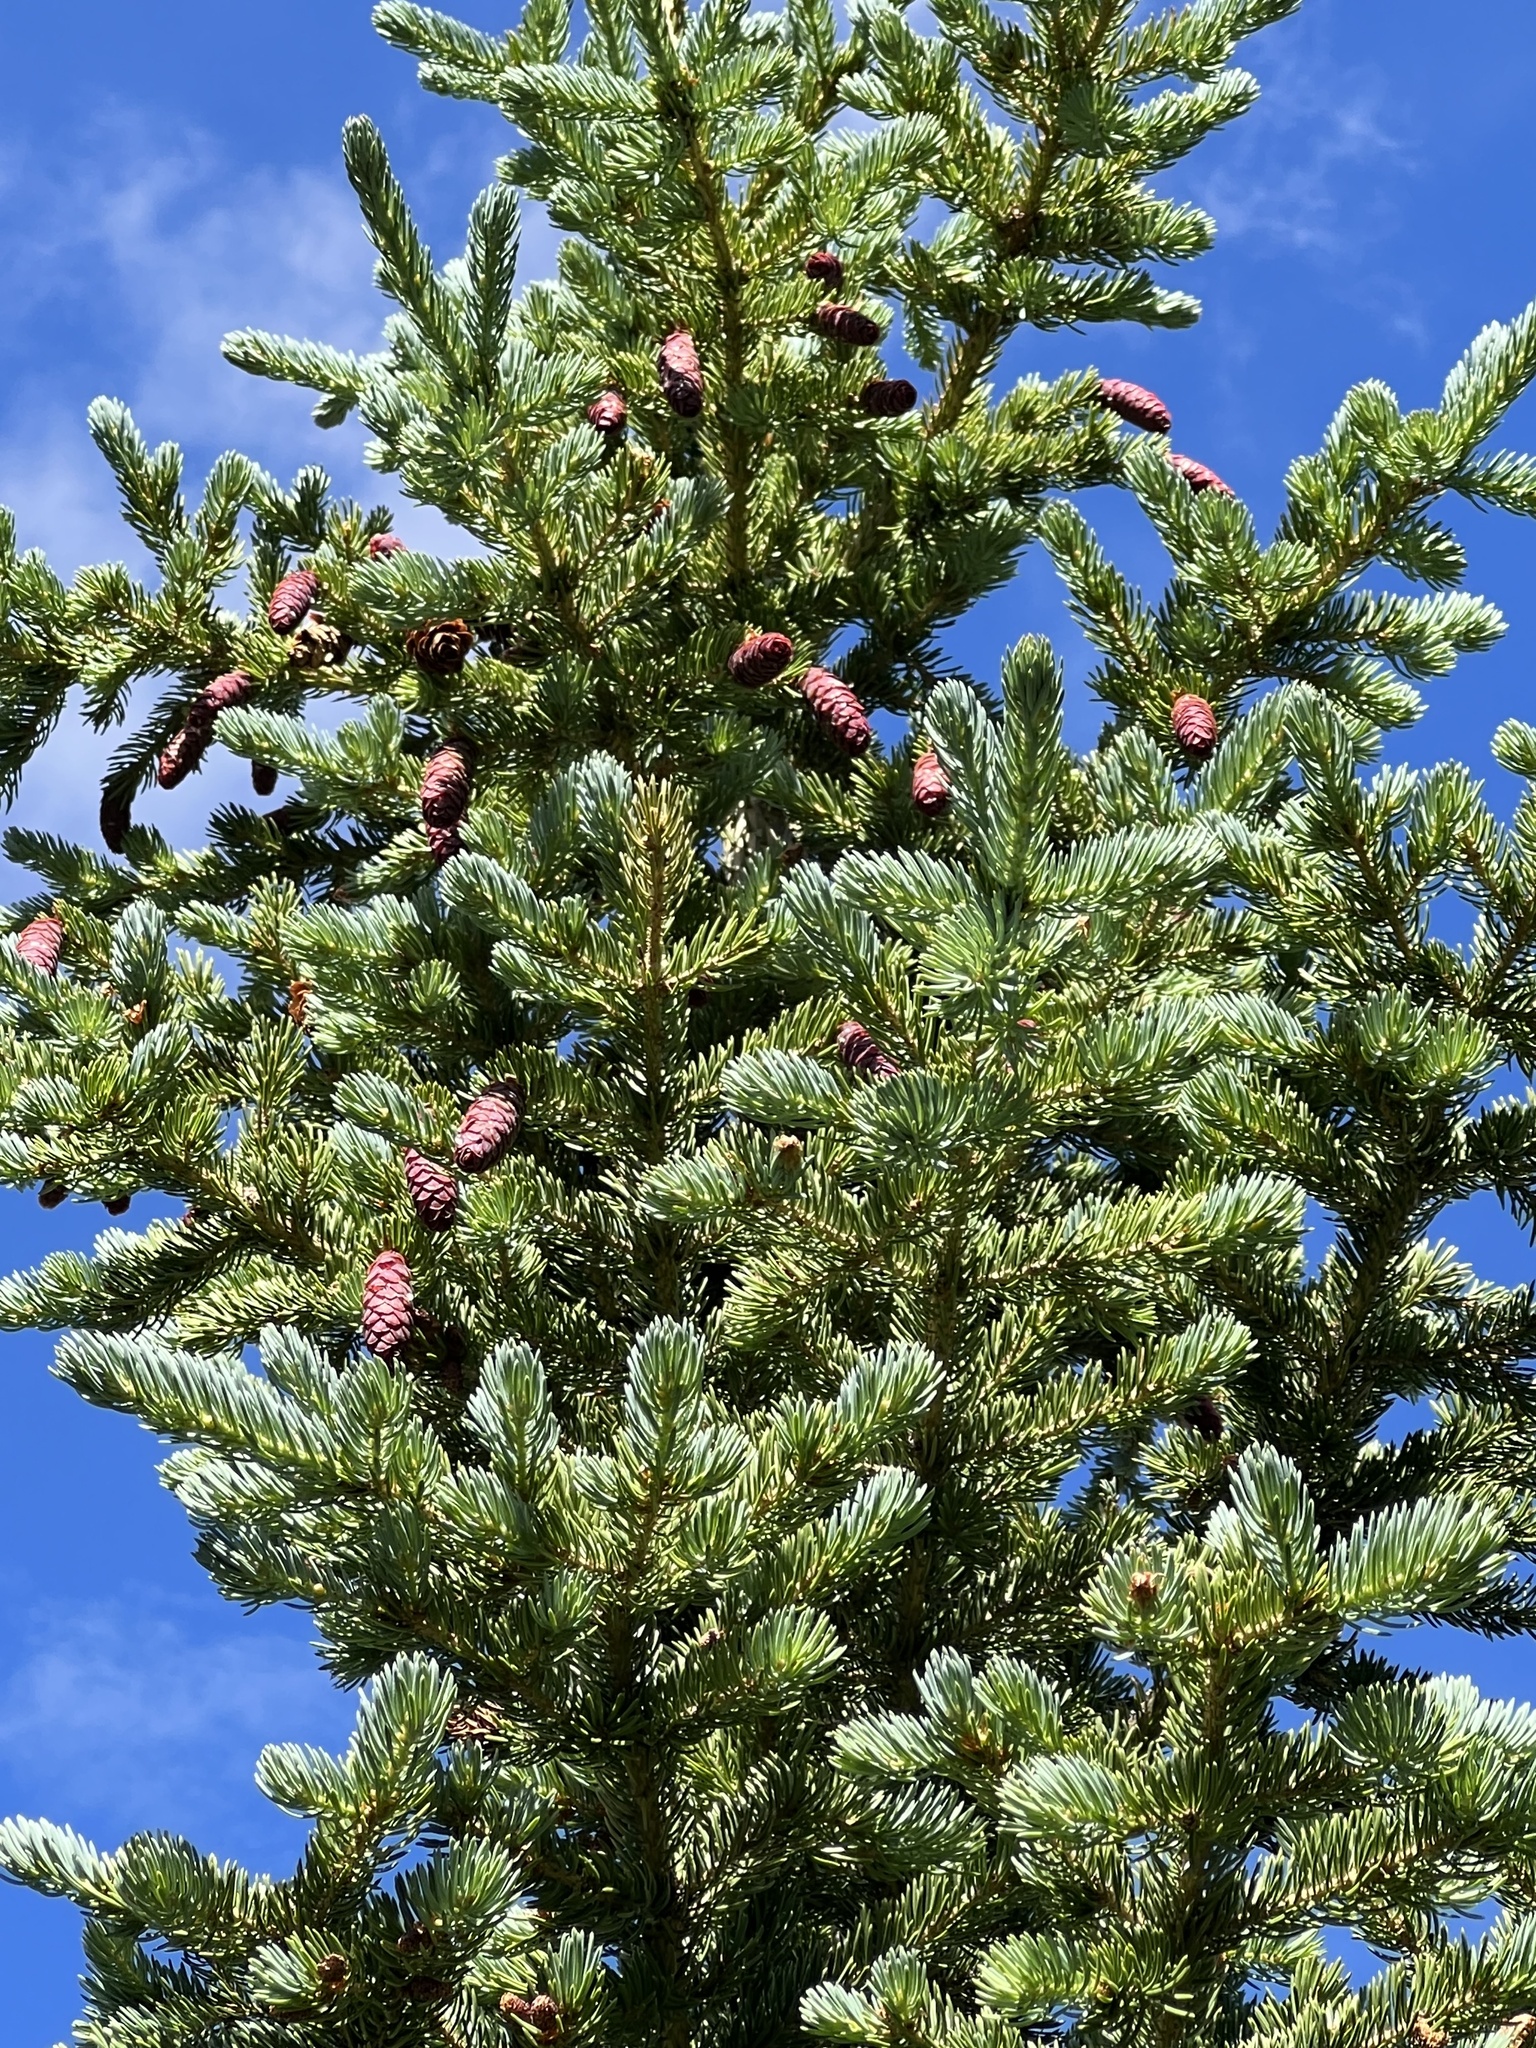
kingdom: Plantae
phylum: Tracheophyta
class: Pinopsida
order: Pinales
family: Pinaceae
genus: Picea
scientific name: Picea engelmannii
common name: Engelmann spruce
